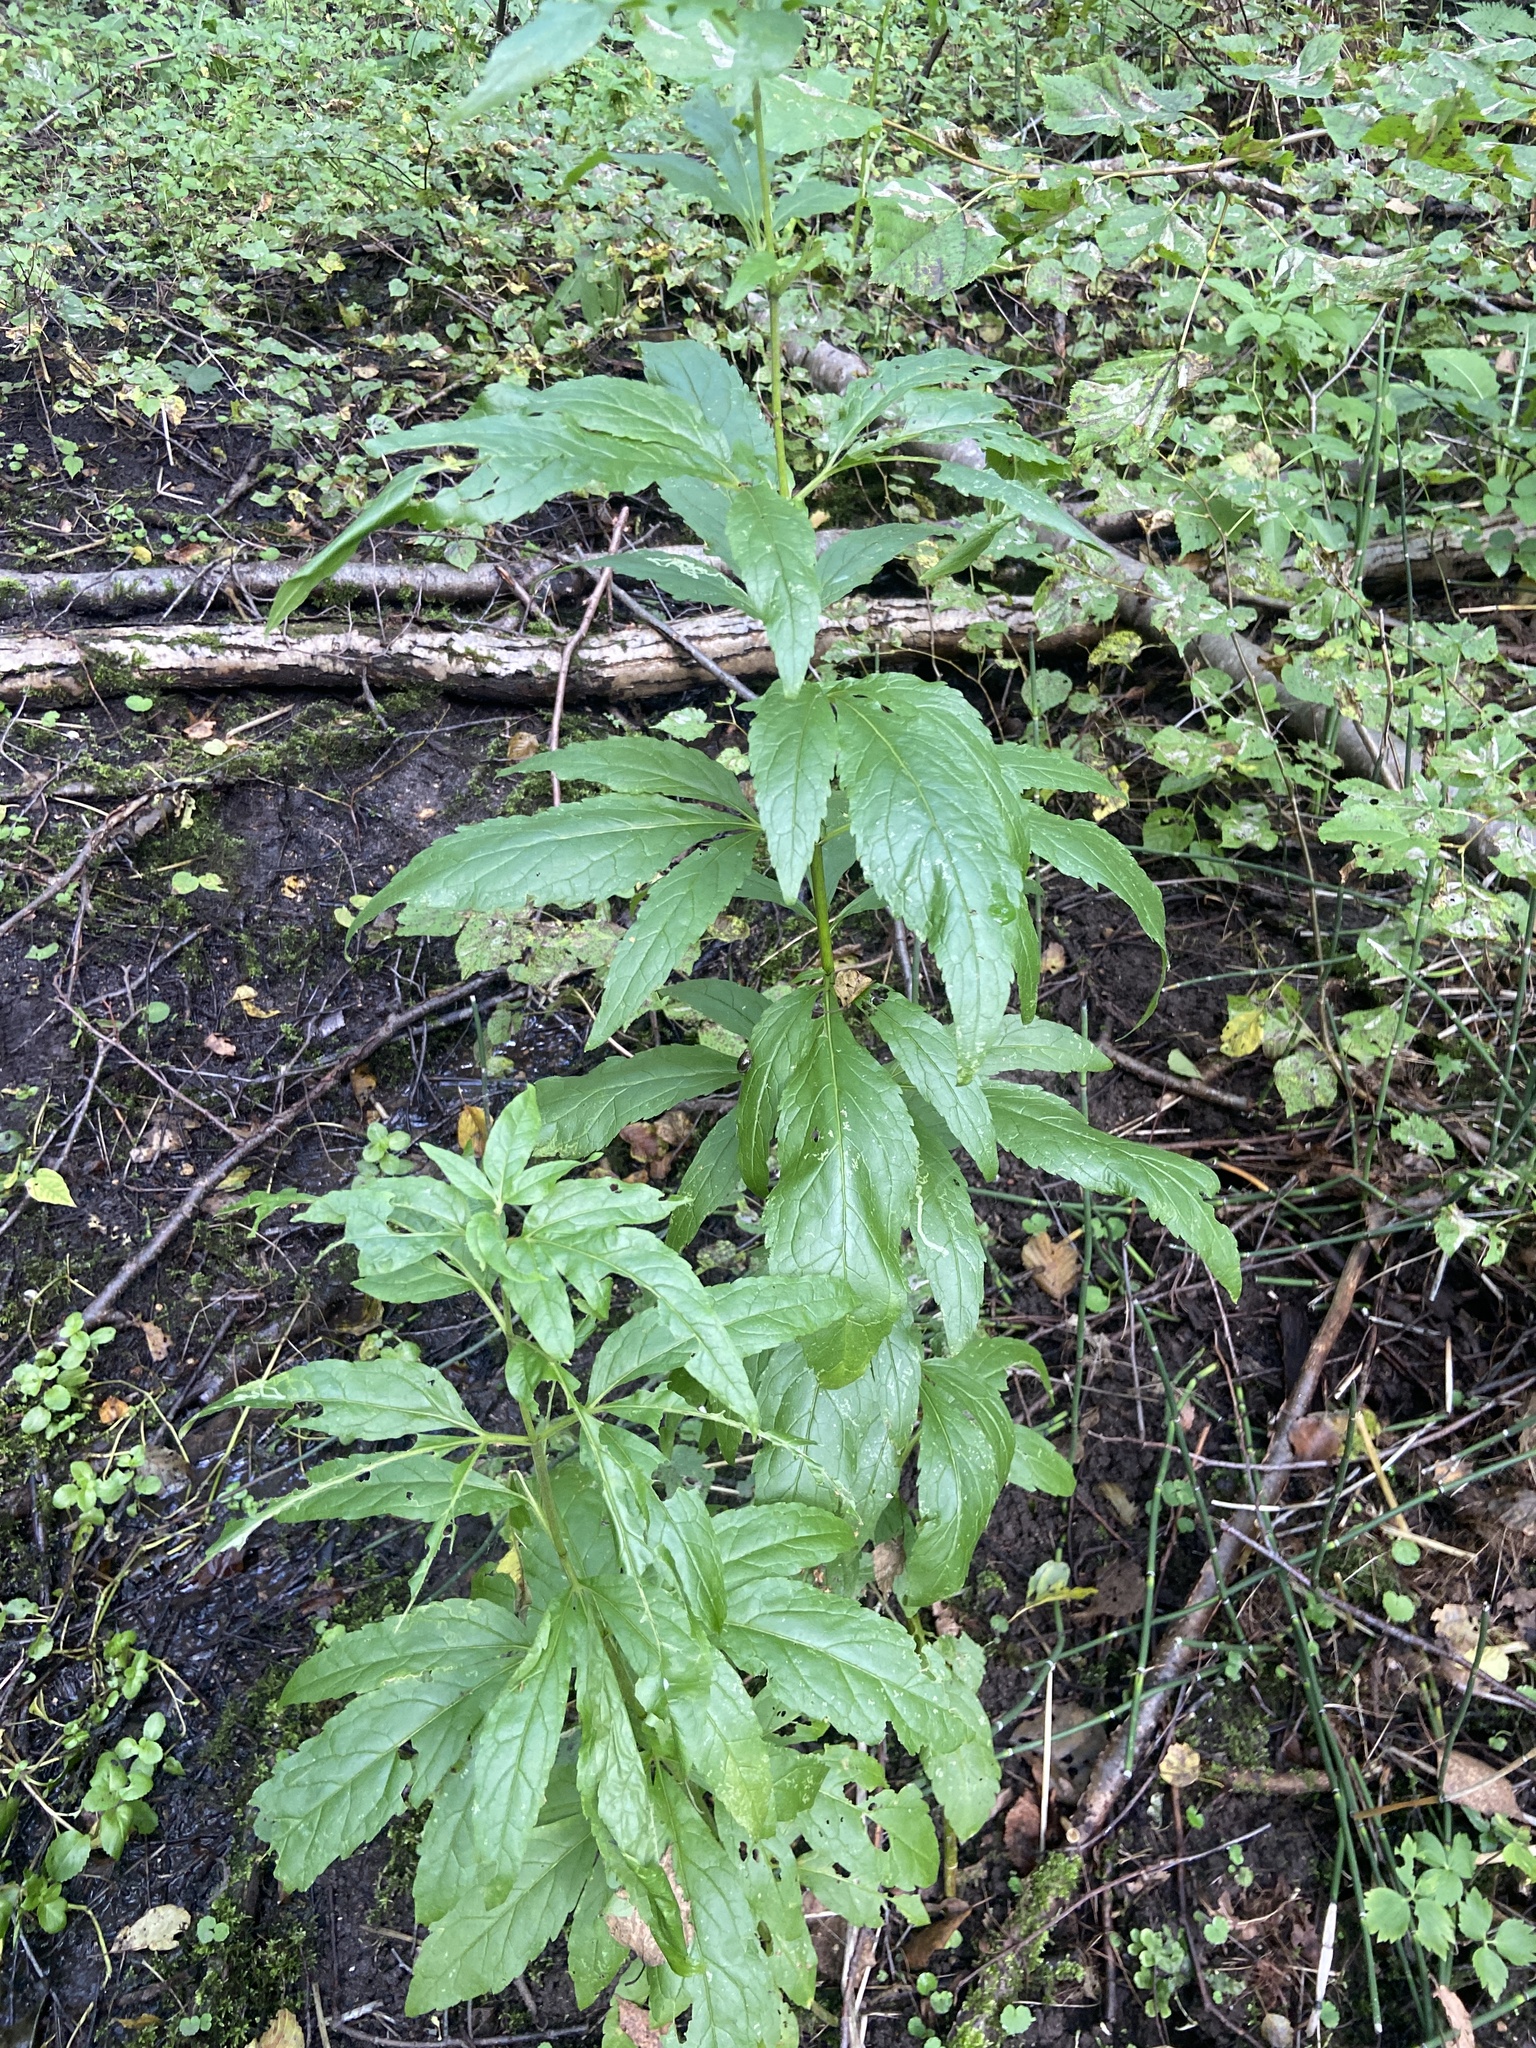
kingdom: Plantae
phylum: Tracheophyta
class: Magnoliopsida
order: Asterales
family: Asteraceae
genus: Eupatorium
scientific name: Eupatorium cannabinum
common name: Hemp-agrimony
